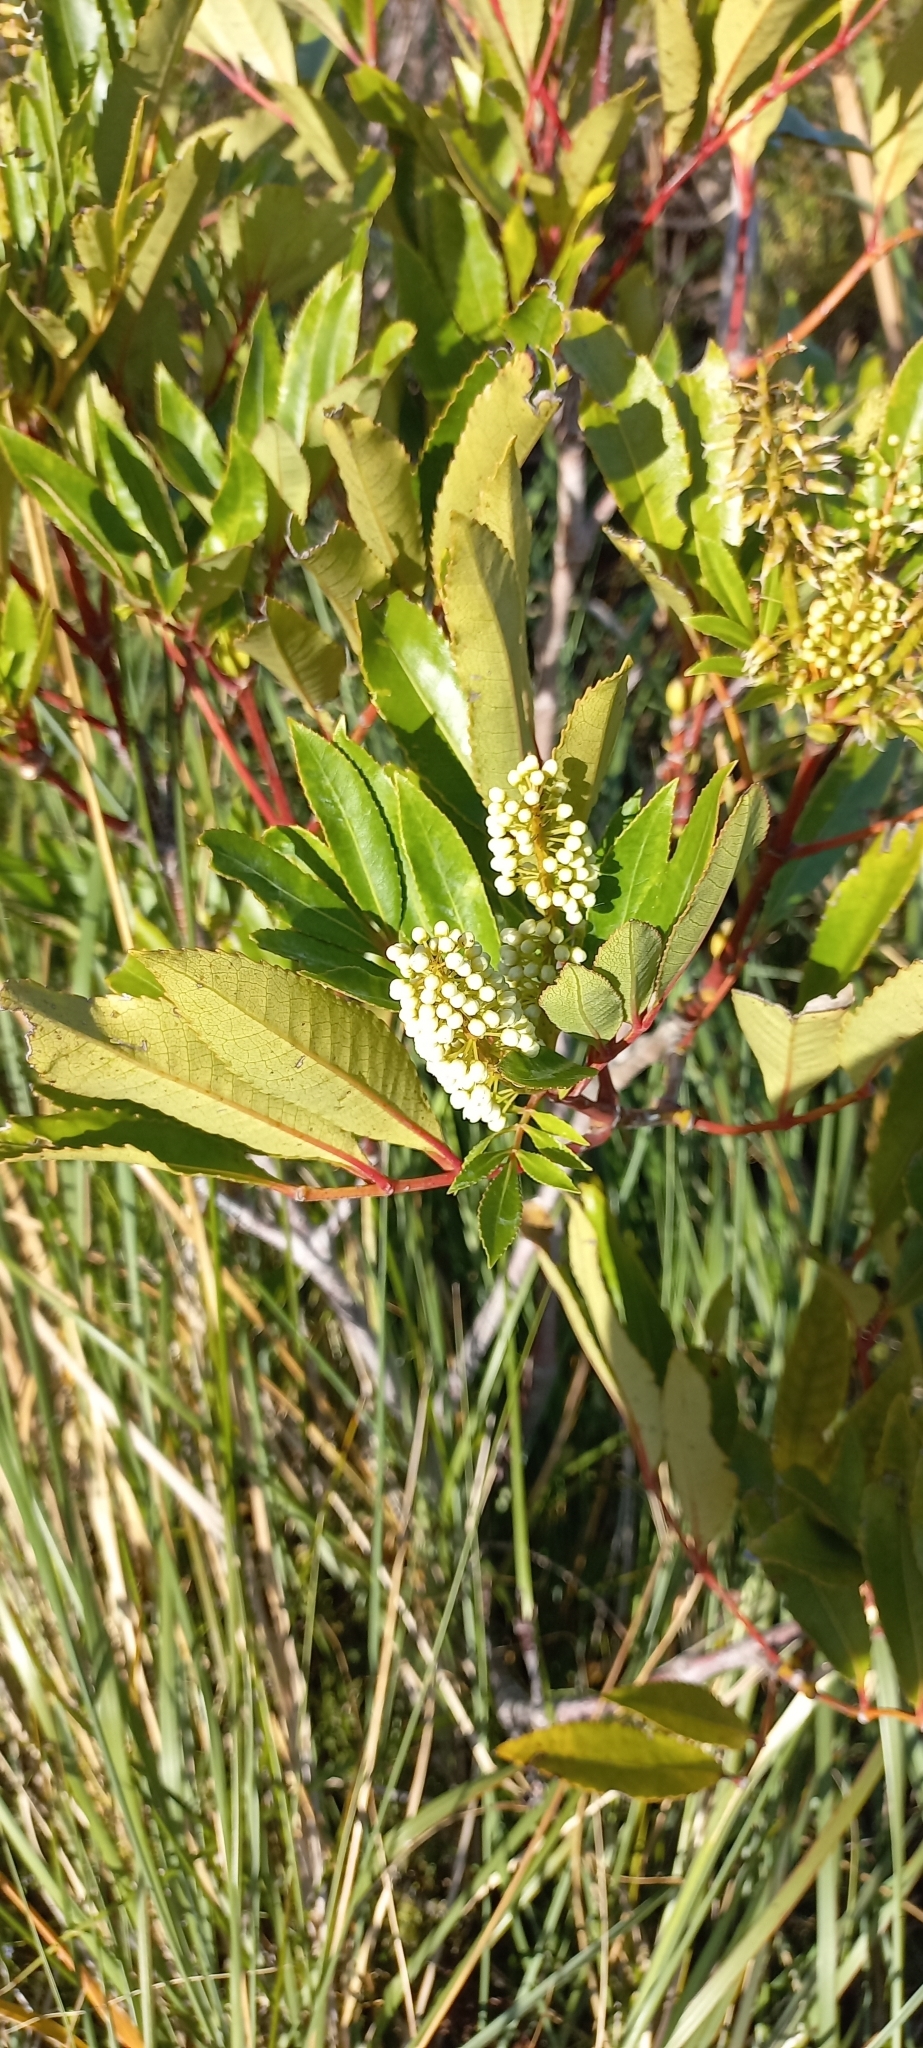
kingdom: Plantae
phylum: Tracheophyta
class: Magnoliopsida
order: Oxalidales
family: Cunoniaceae
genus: Cunonia
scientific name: Cunonia capensis
